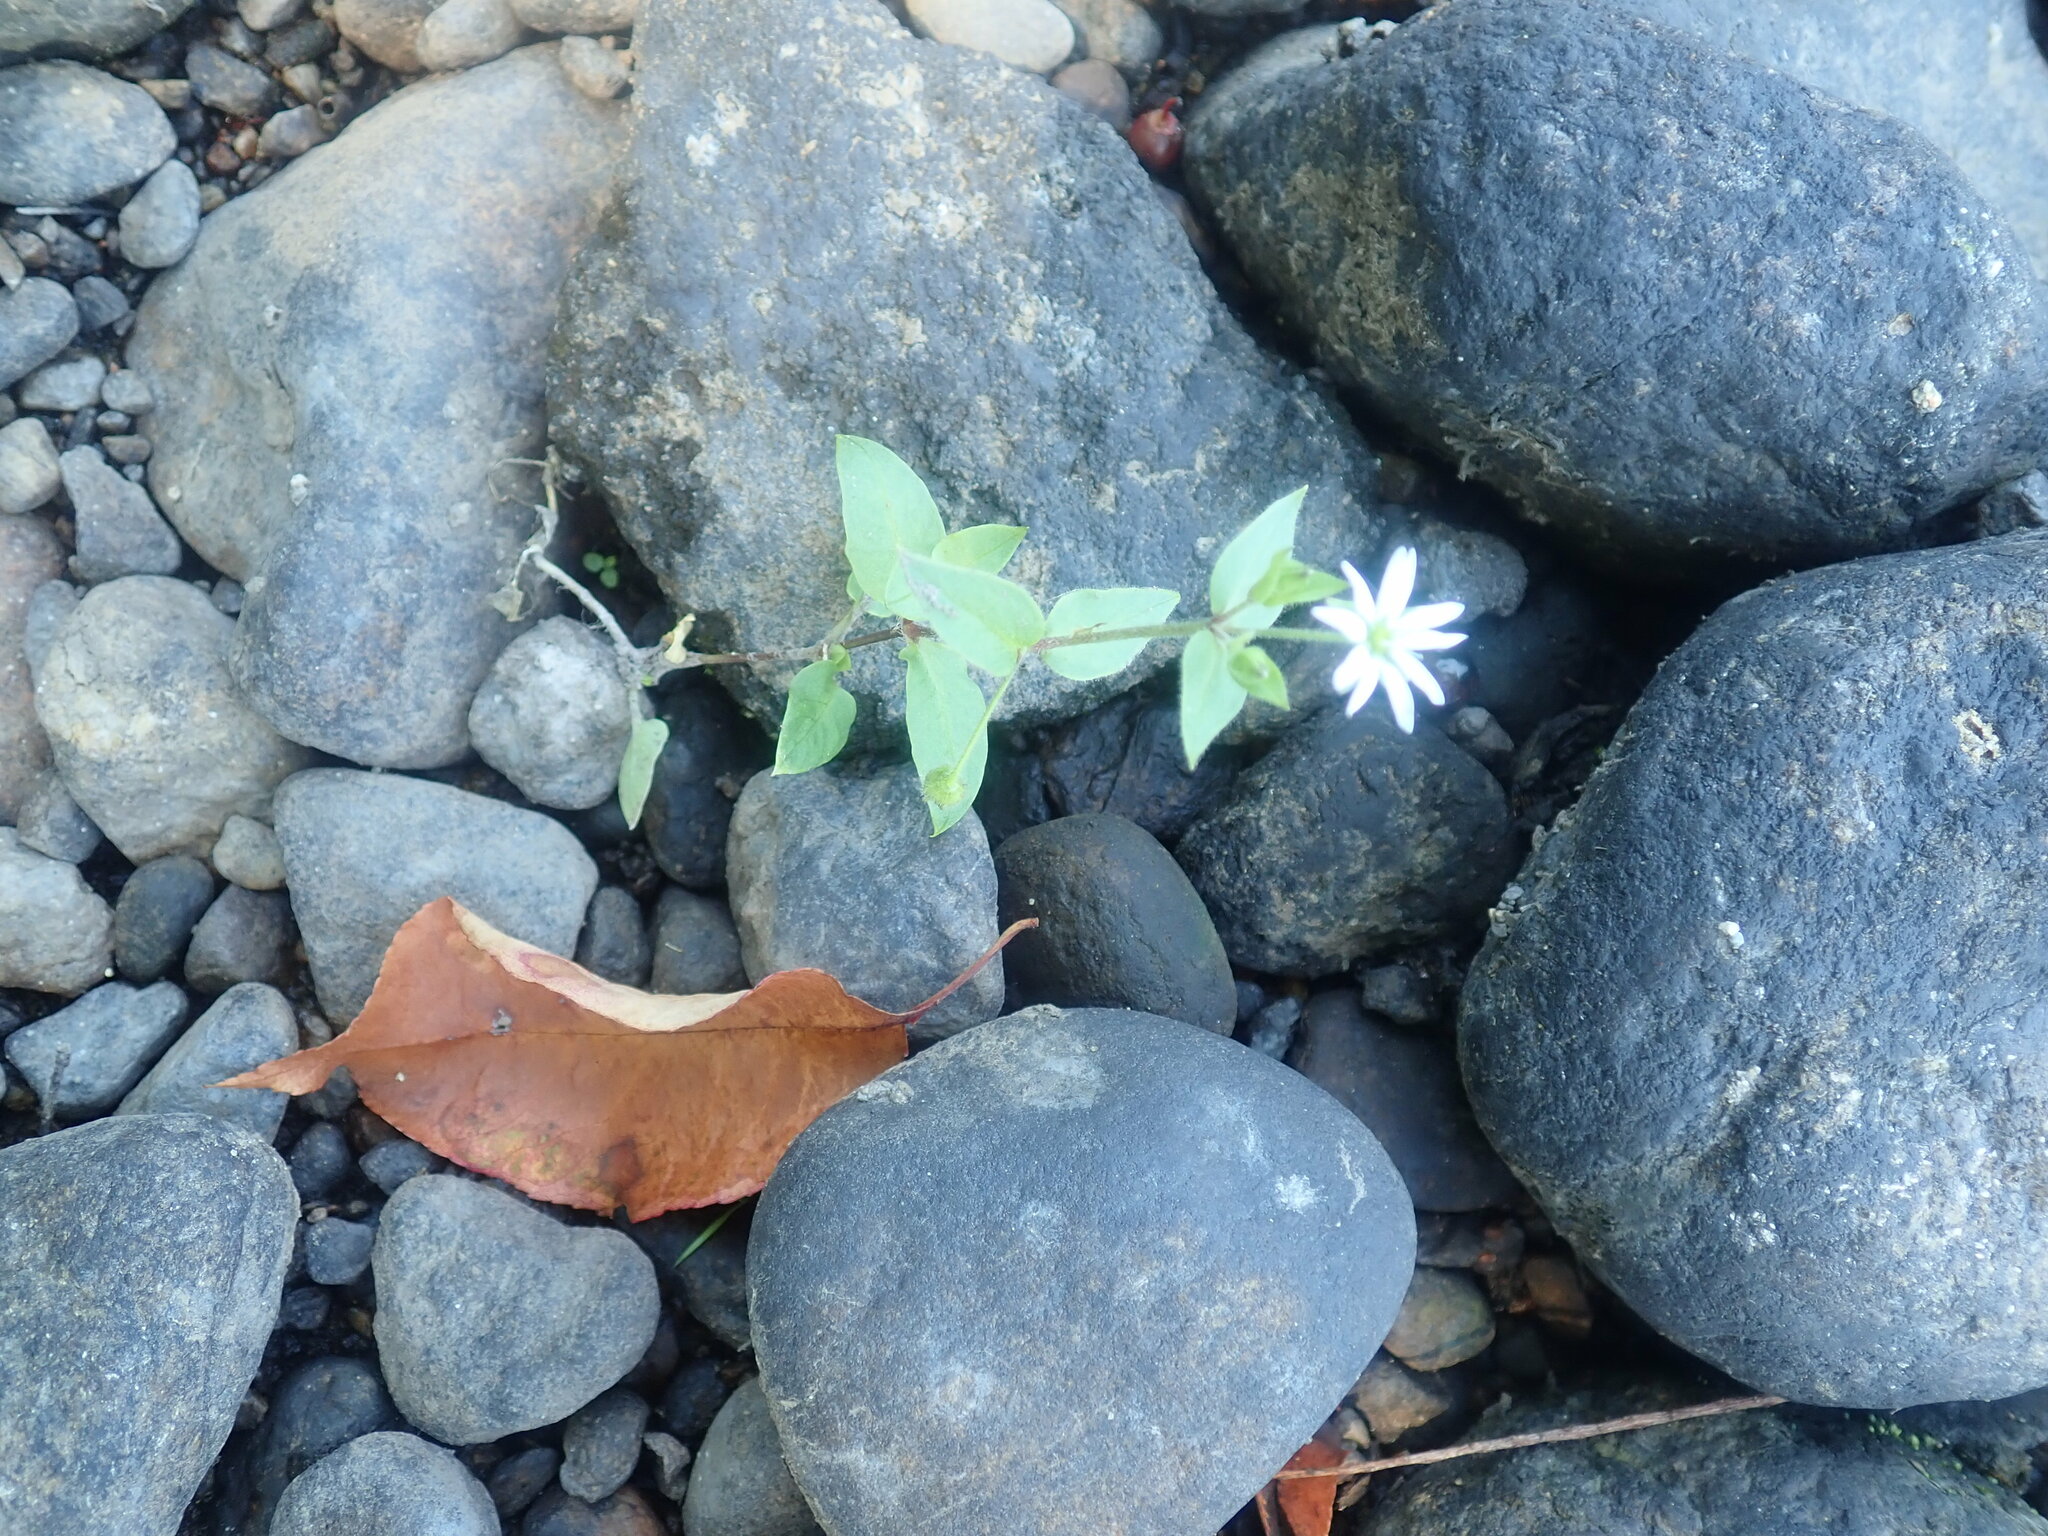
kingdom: Plantae
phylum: Tracheophyta
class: Magnoliopsida
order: Caryophyllales
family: Caryophyllaceae
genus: Stellaria
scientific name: Stellaria aquatica
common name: Water chickweed
